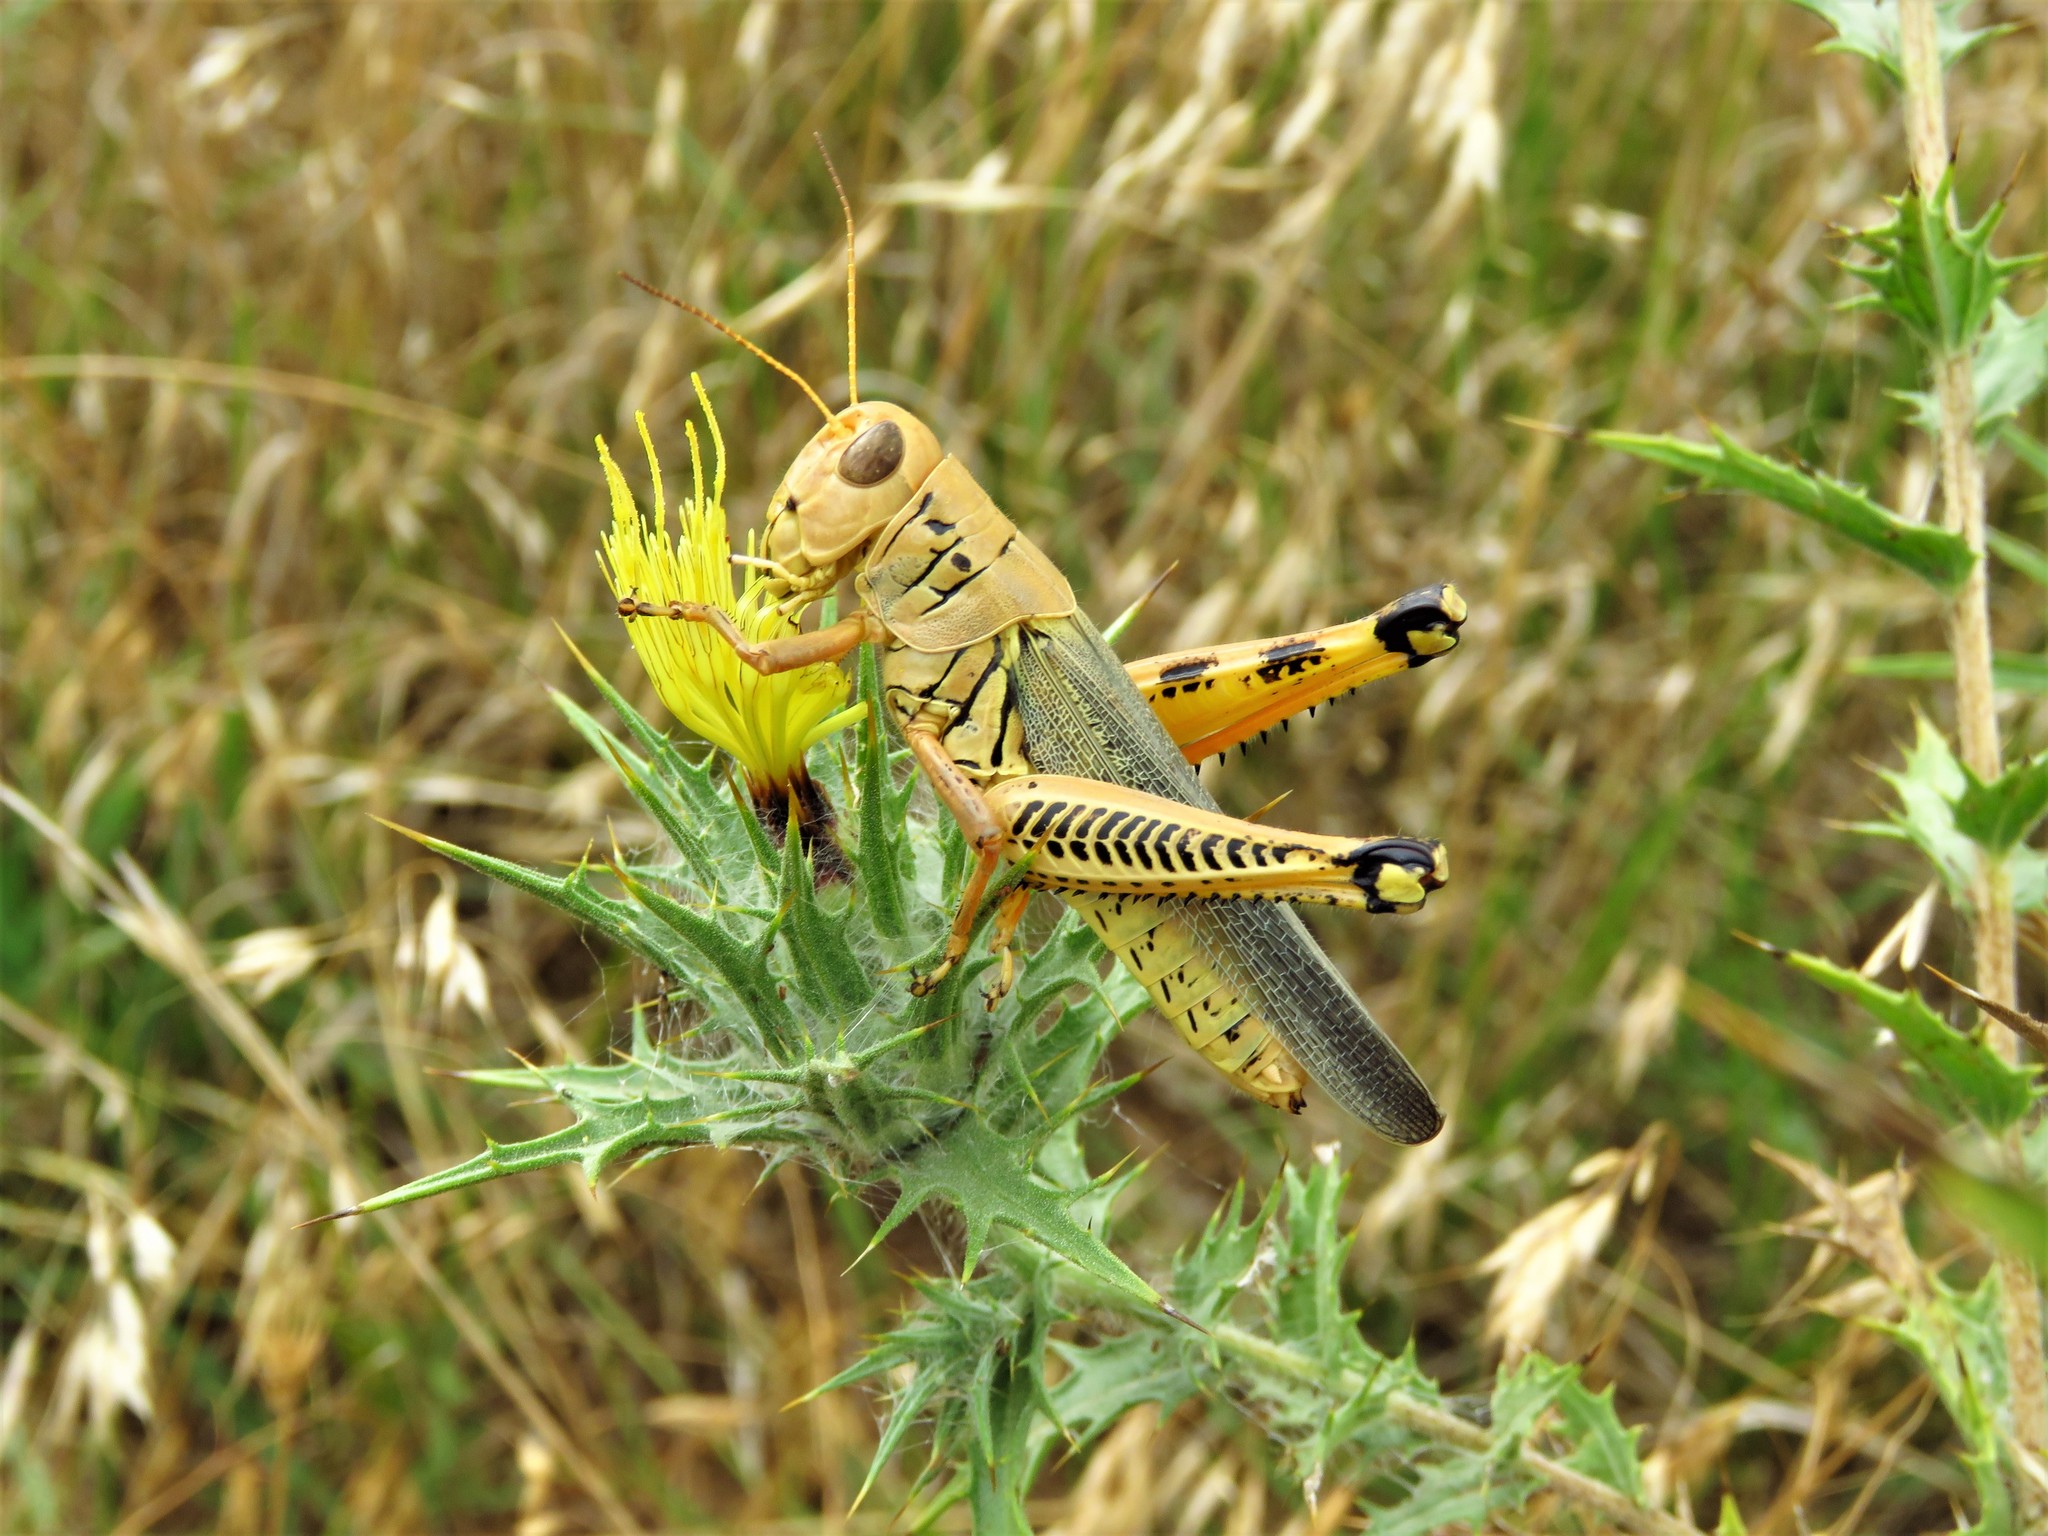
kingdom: Animalia
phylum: Arthropoda
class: Insecta
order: Orthoptera
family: Acrididae
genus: Melanoplus
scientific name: Melanoplus differentialis
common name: Differential grasshopper
